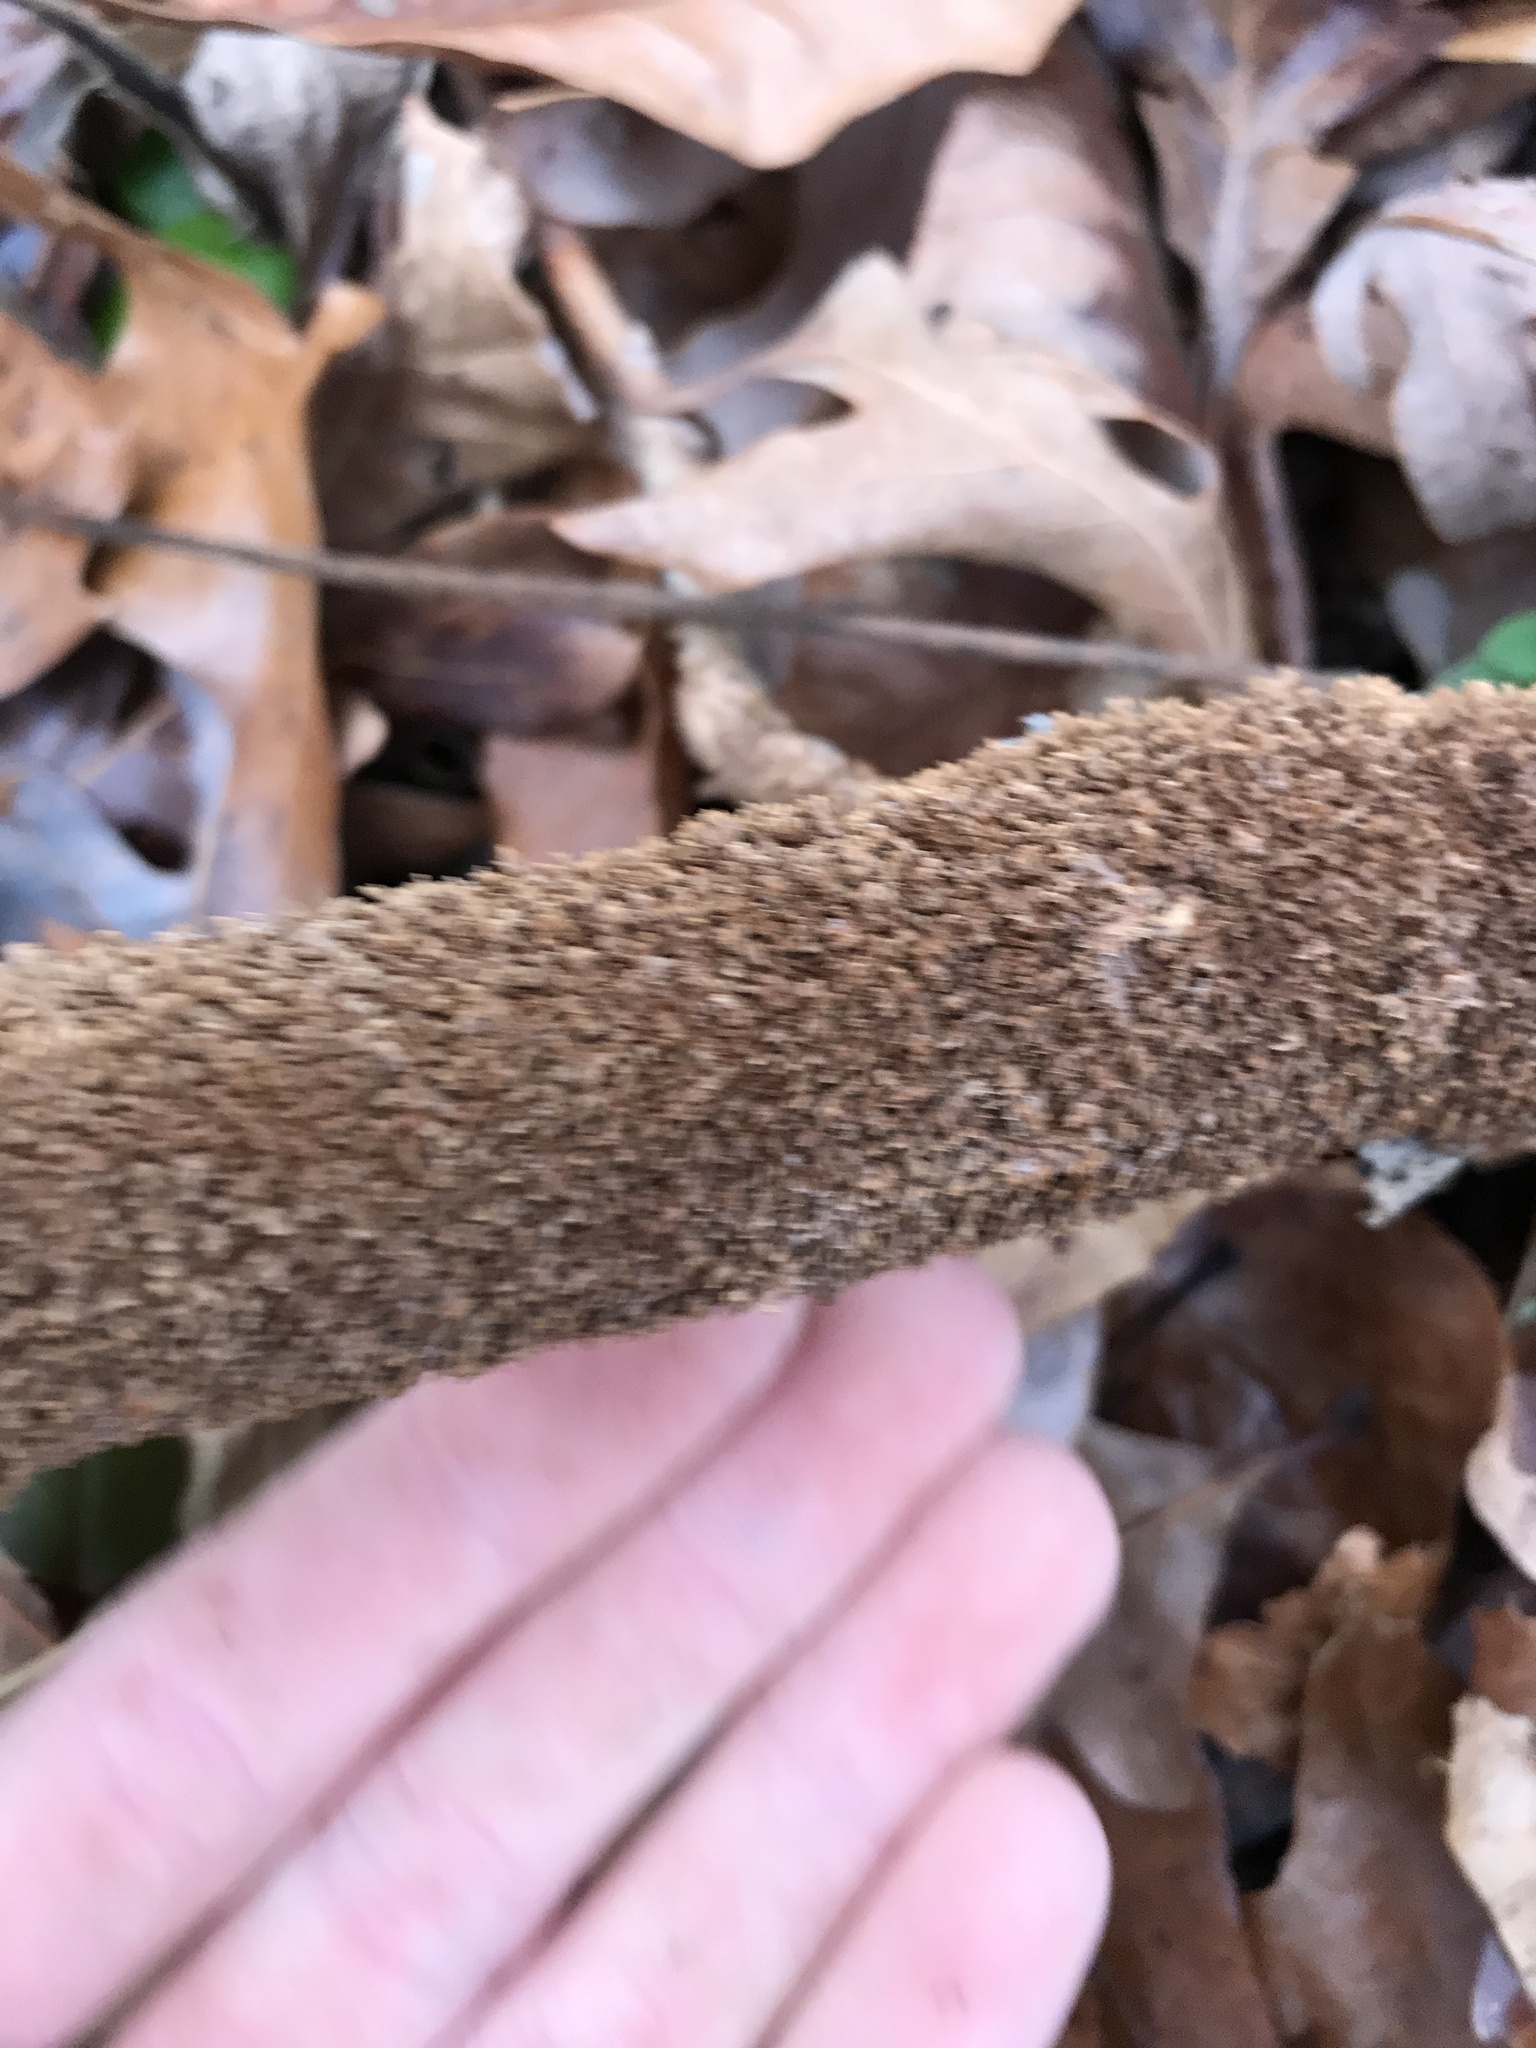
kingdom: Fungi
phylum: Basidiomycota
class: Agaricomycetes
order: Hymenochaetales
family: Hymenochaetaceae
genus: Hydnoporia
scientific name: Hydnoporia olivacea
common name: Brown-toothed crust fungus
